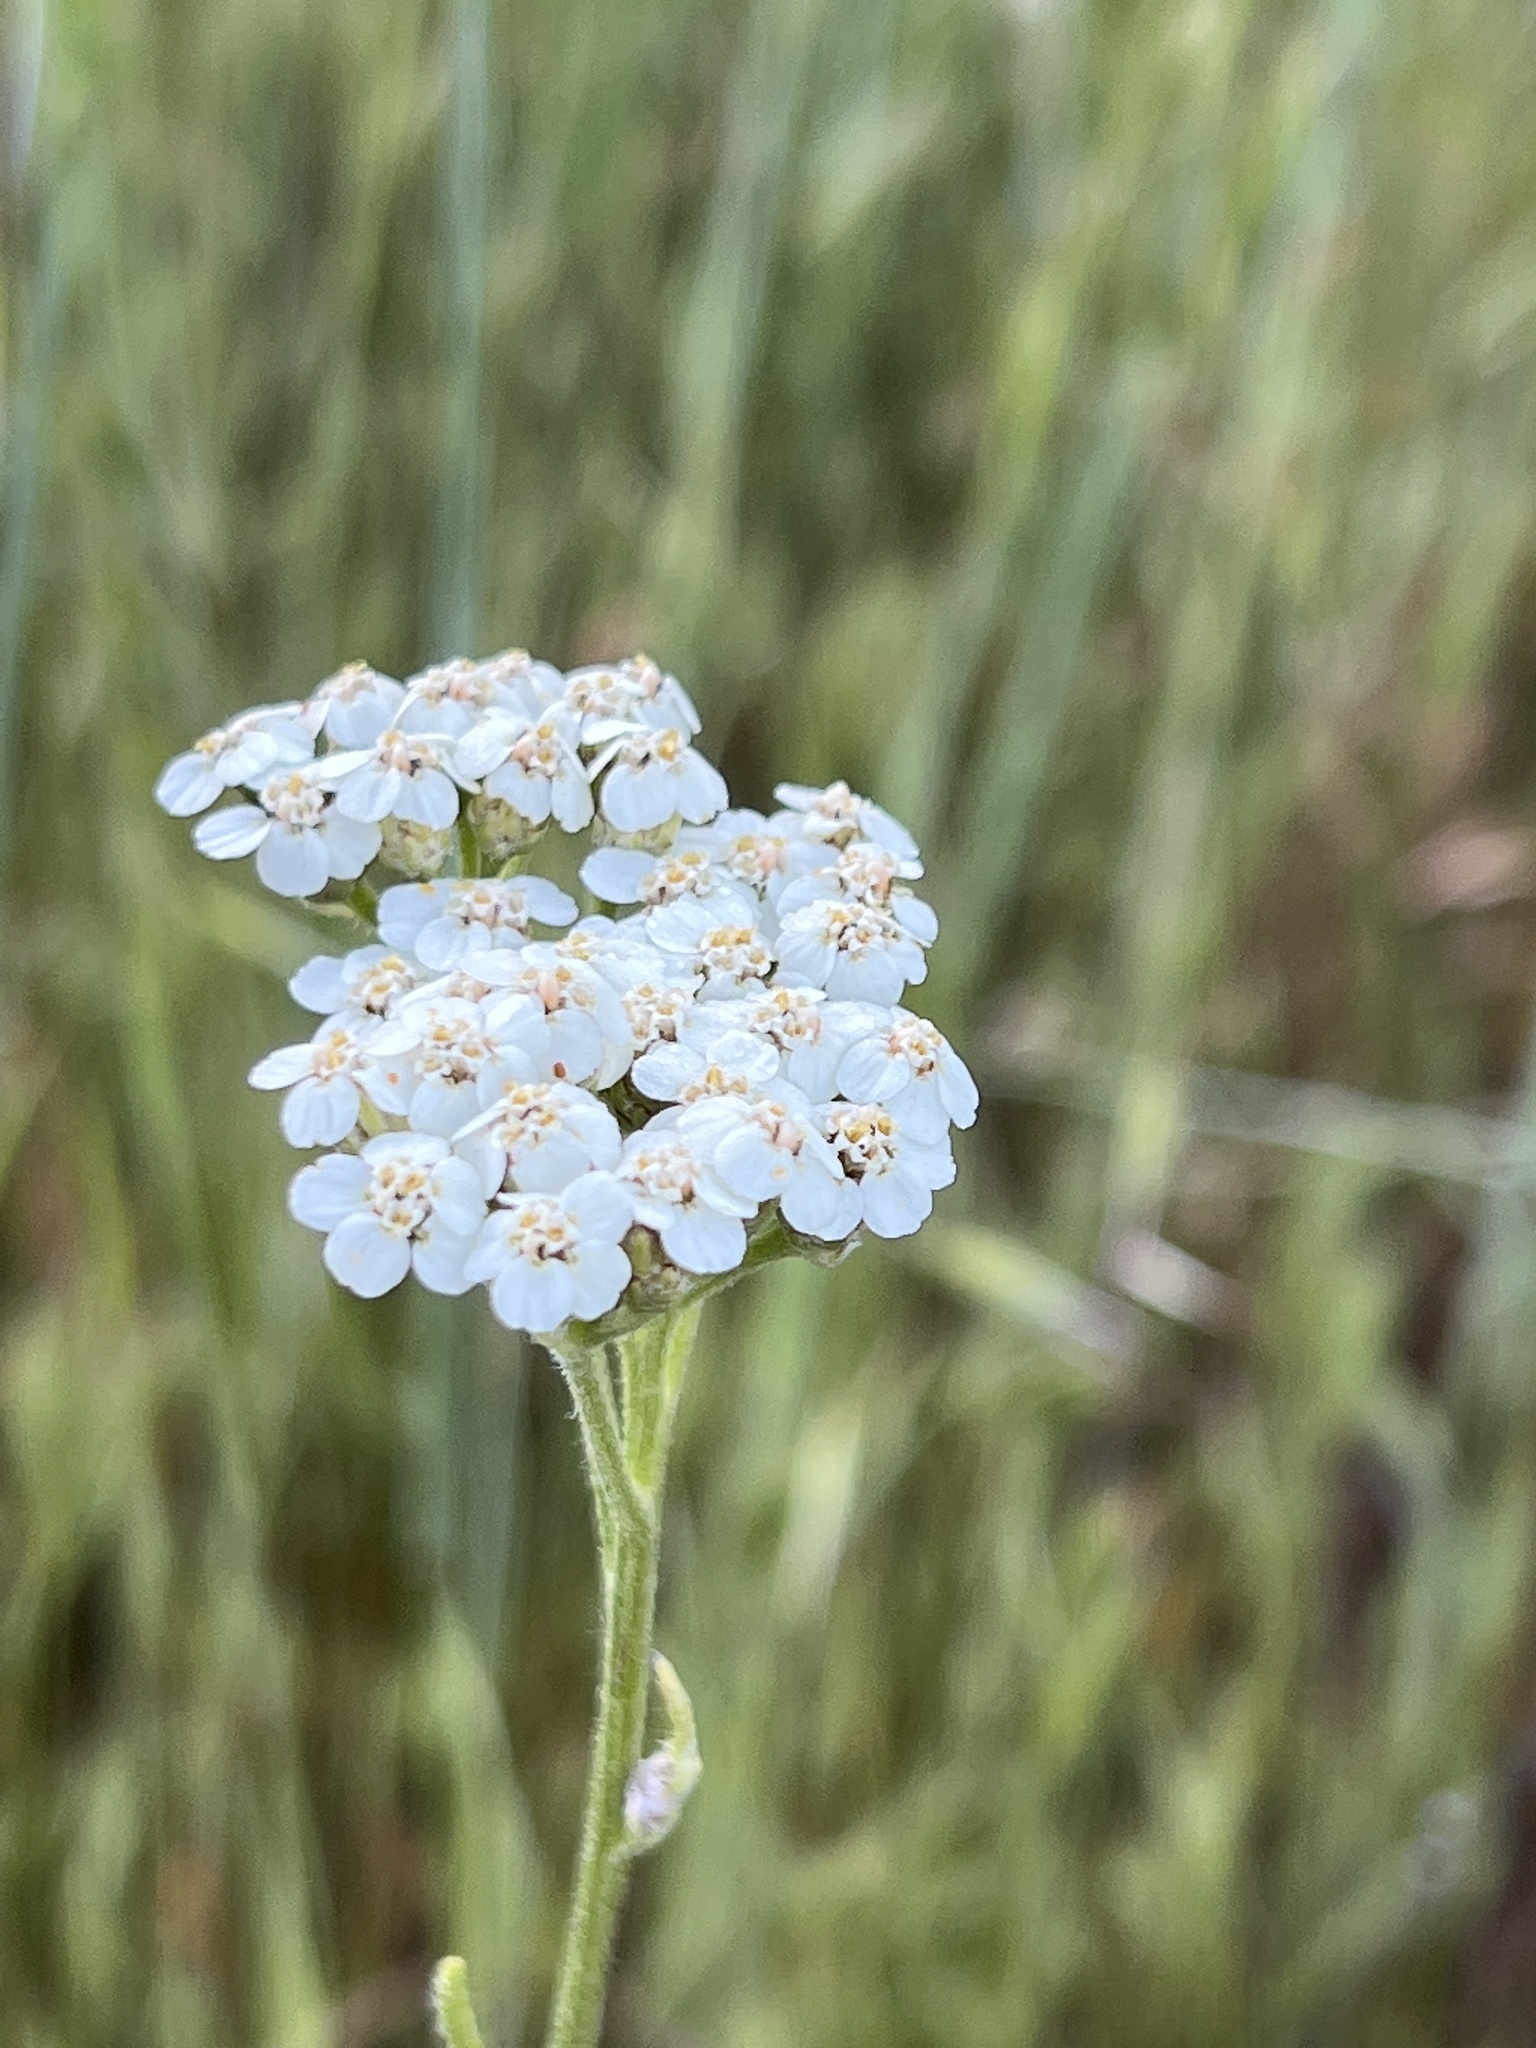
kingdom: Plantae
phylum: Tracheophyta
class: Magnoliopsida
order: Asterales
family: Asteraceae
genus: Achillea
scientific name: Achillea millefolium
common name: Yarrow
